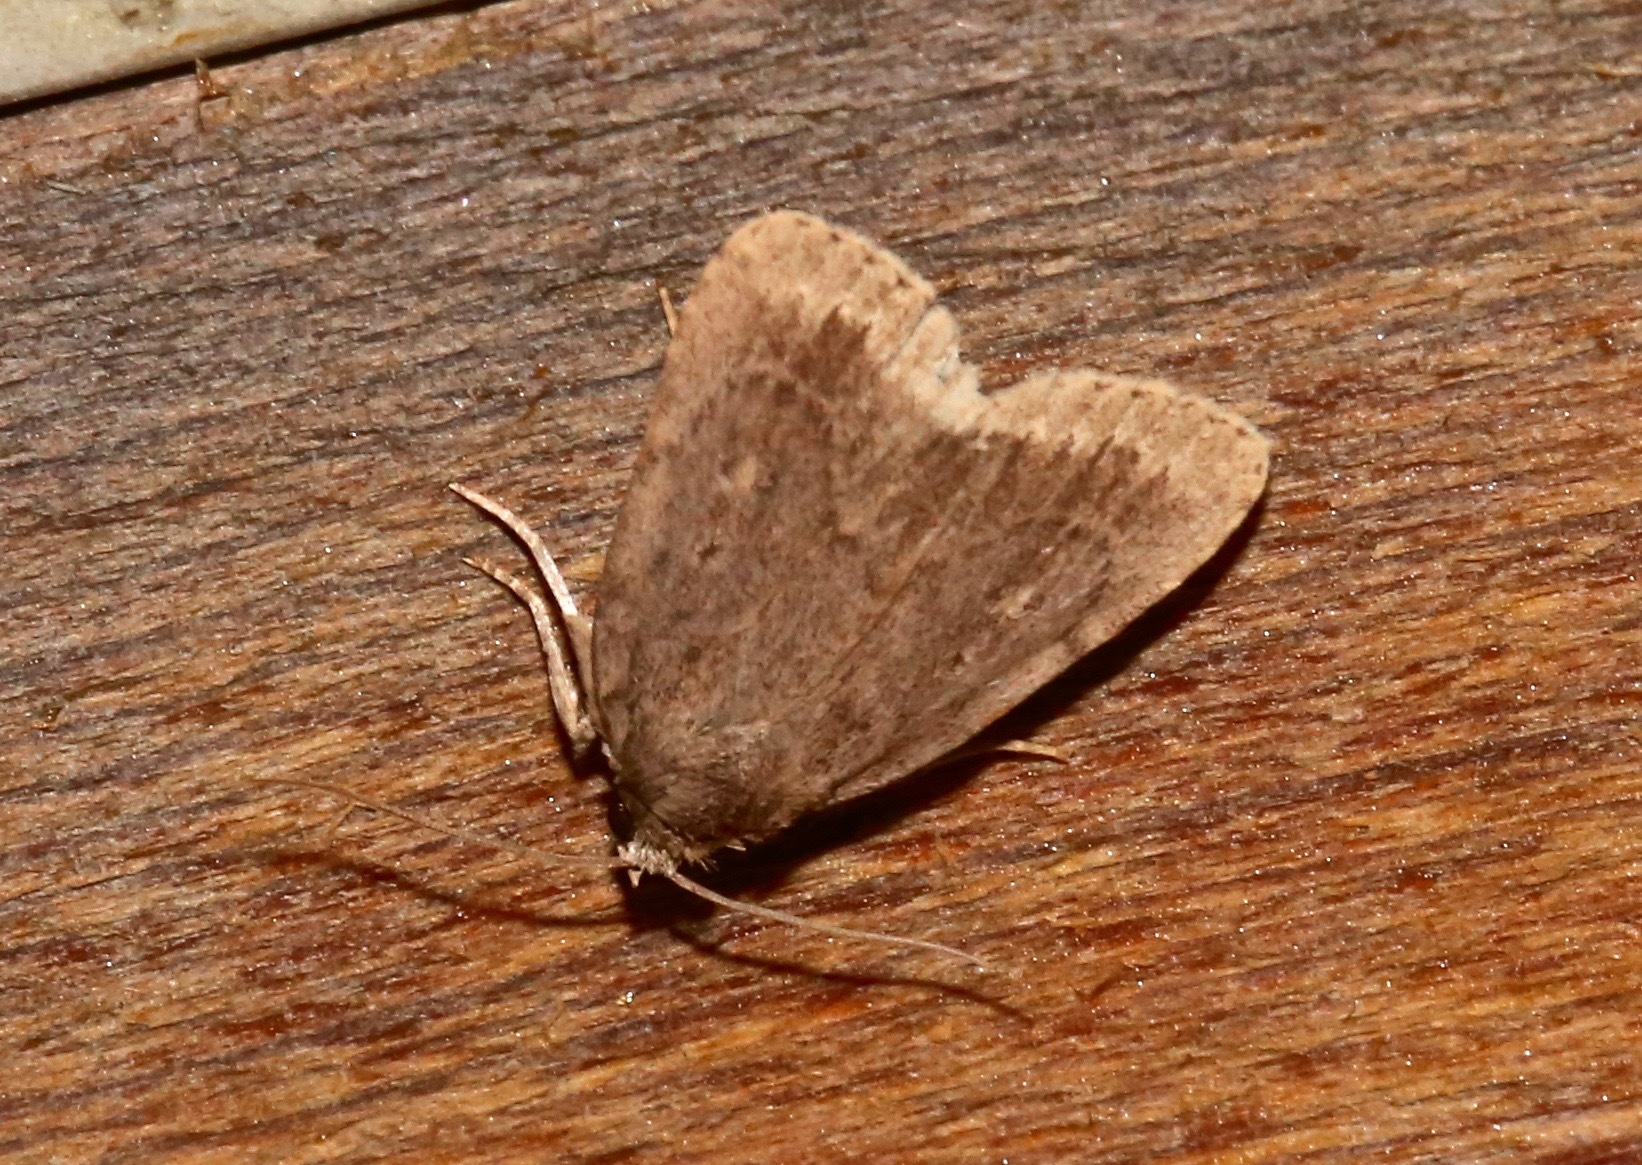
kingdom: Animalia
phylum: Arthropoda
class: Insecta
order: Lepidoptera
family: Noctuidae
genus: Amphipyra
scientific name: Amphipyra glabella
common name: Smooth amphipyra moth
